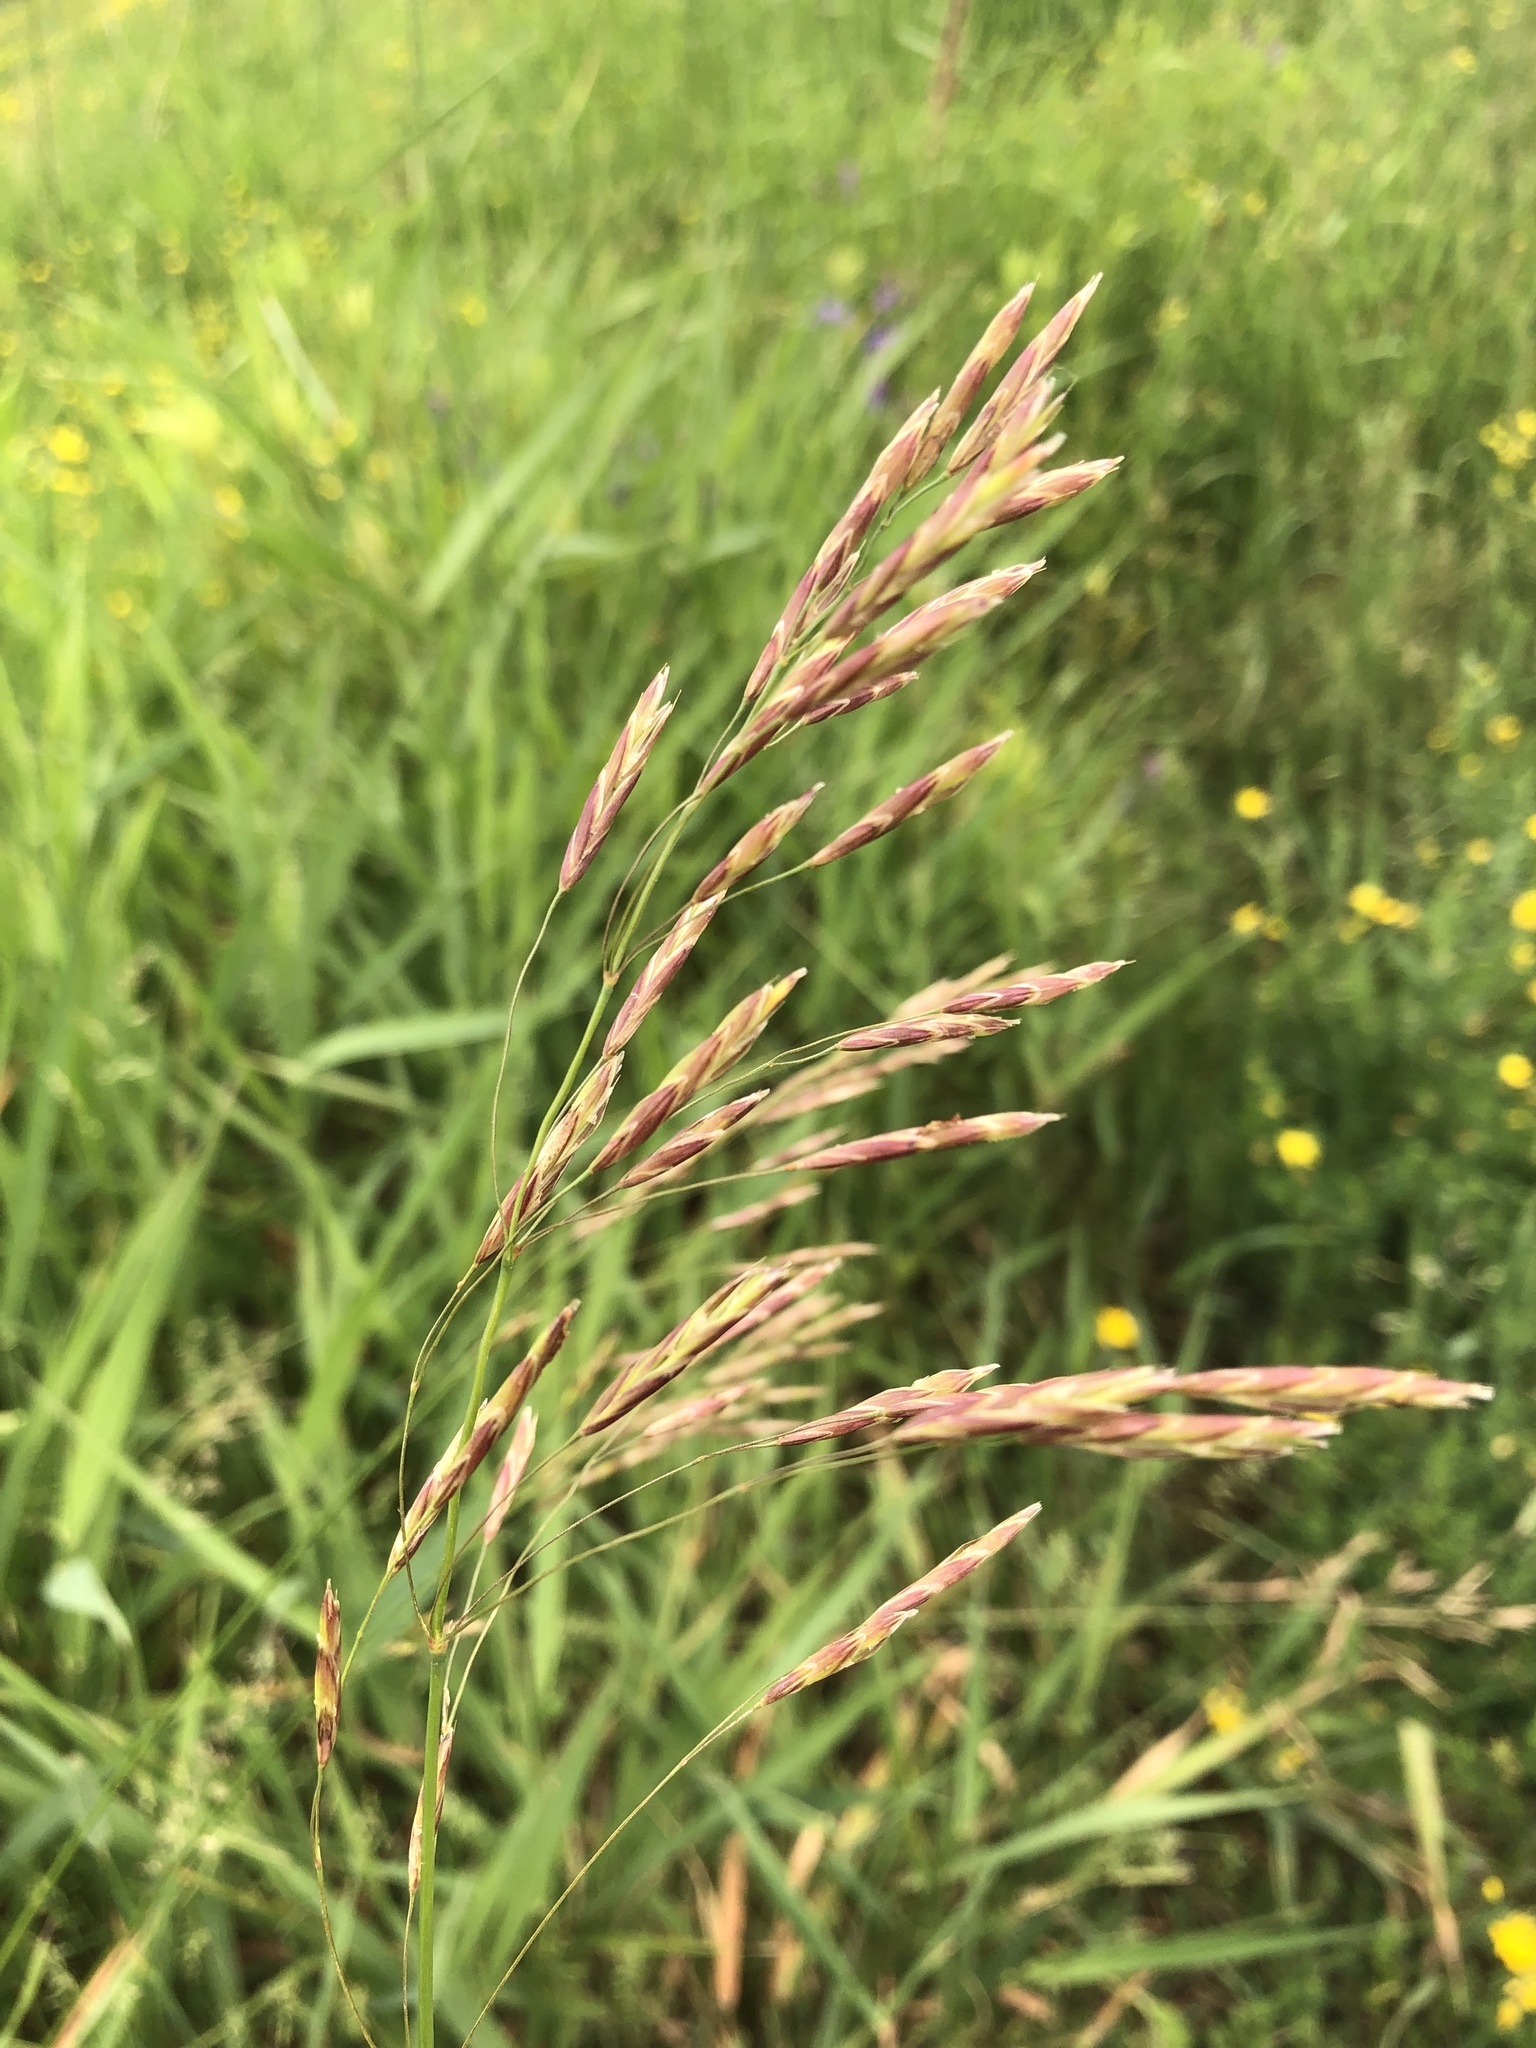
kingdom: Plantae
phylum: Tracheophyta
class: Liliopsida
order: Poales
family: Poaceae
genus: Bromus
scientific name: Bromus inermis
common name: Smooth brome
